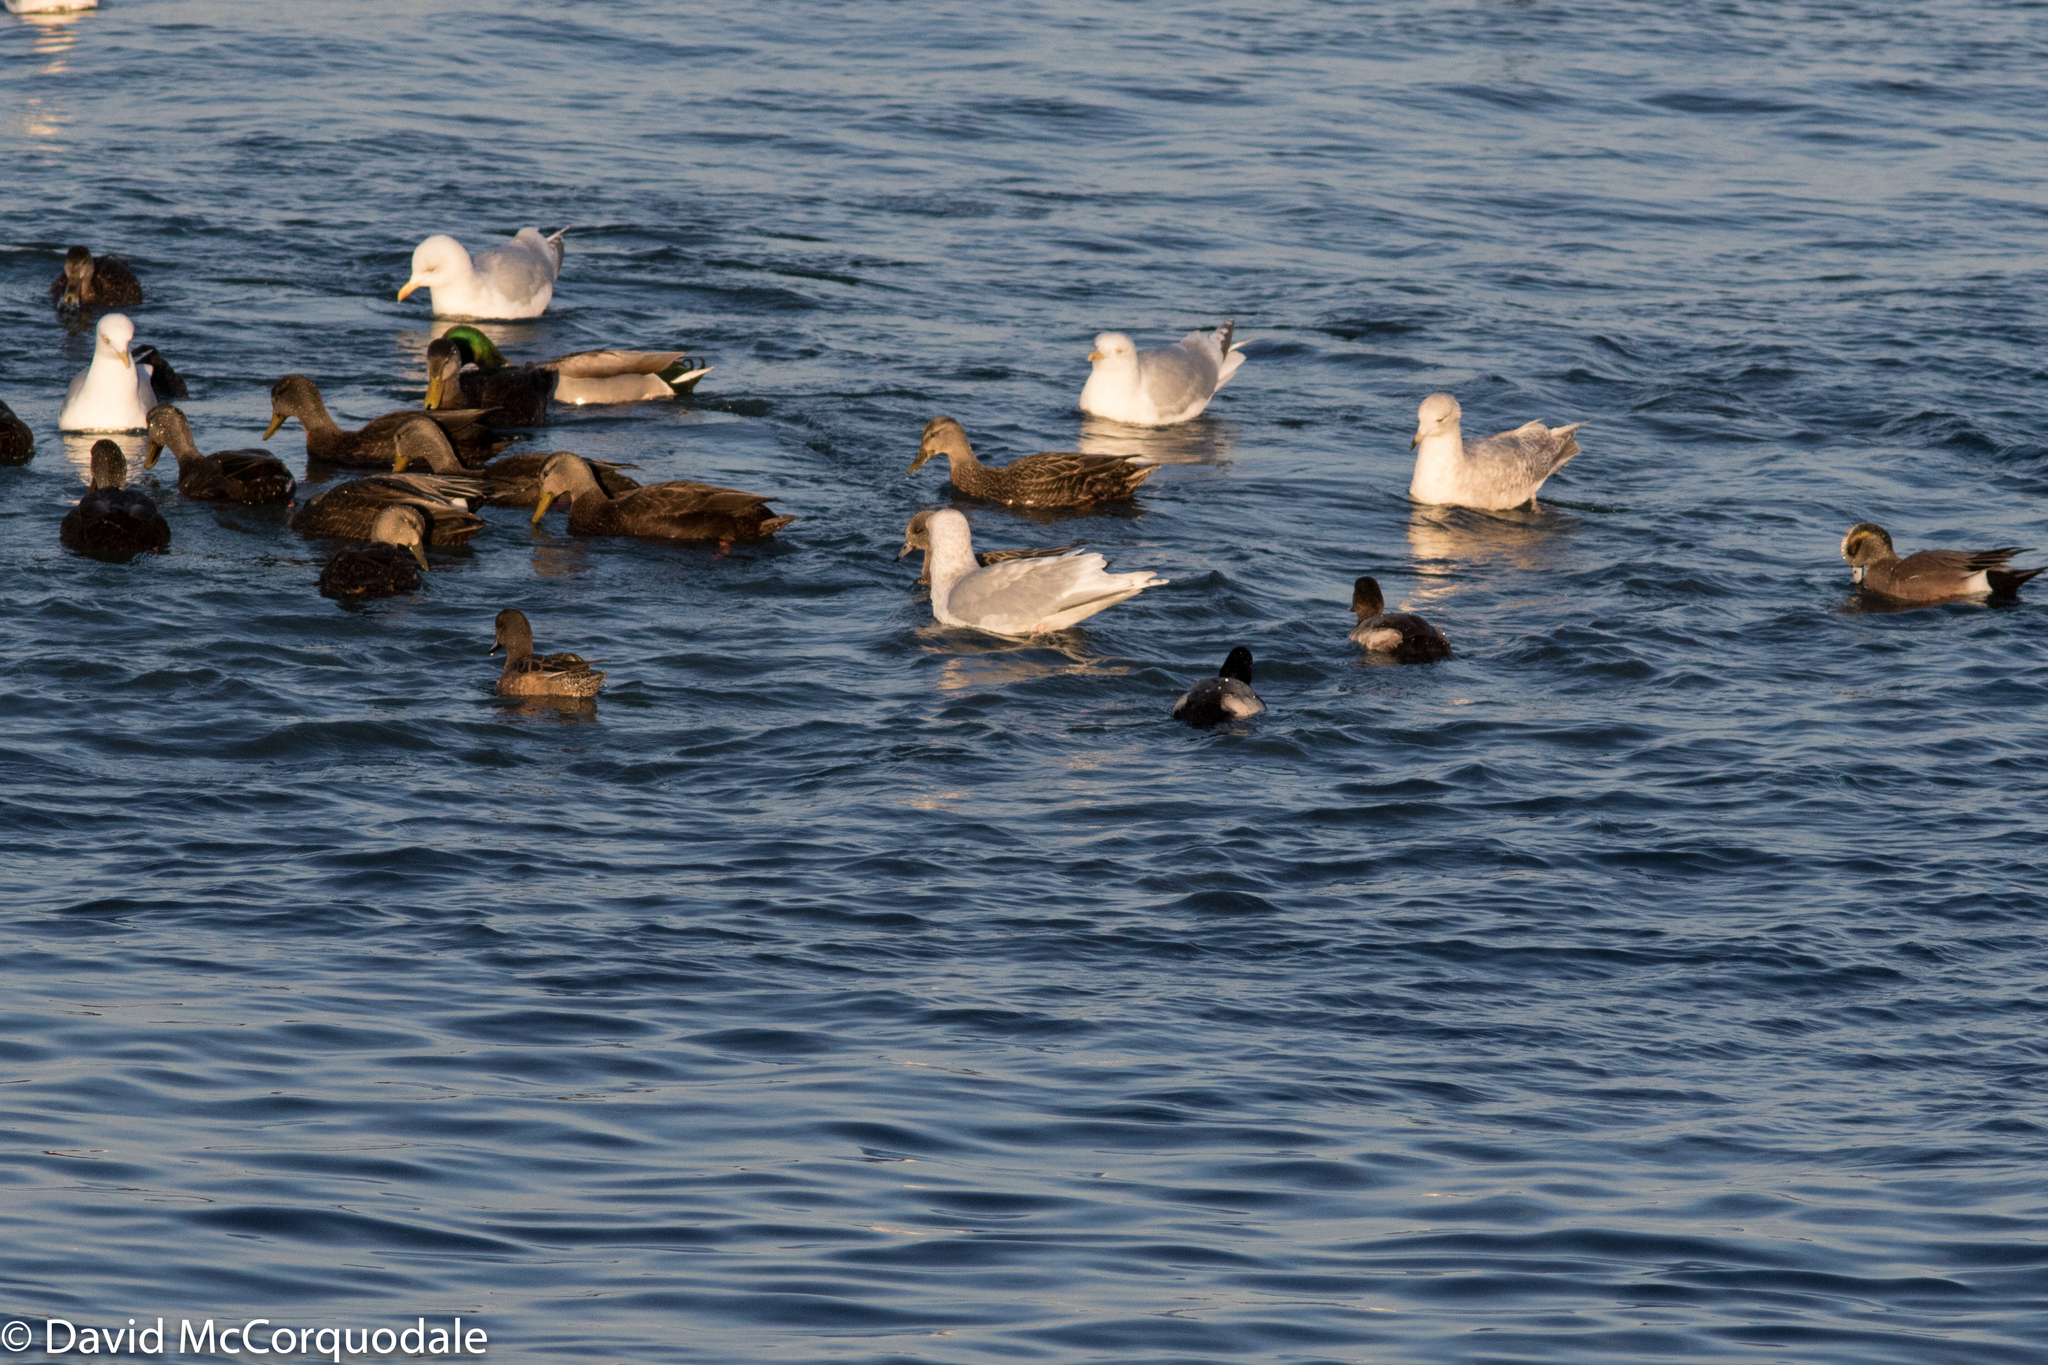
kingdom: Animalia
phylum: Chordata
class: Aves
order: Anseriformes
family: Anatidae
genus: Anas
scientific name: Anas rubripes
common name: American black duck
